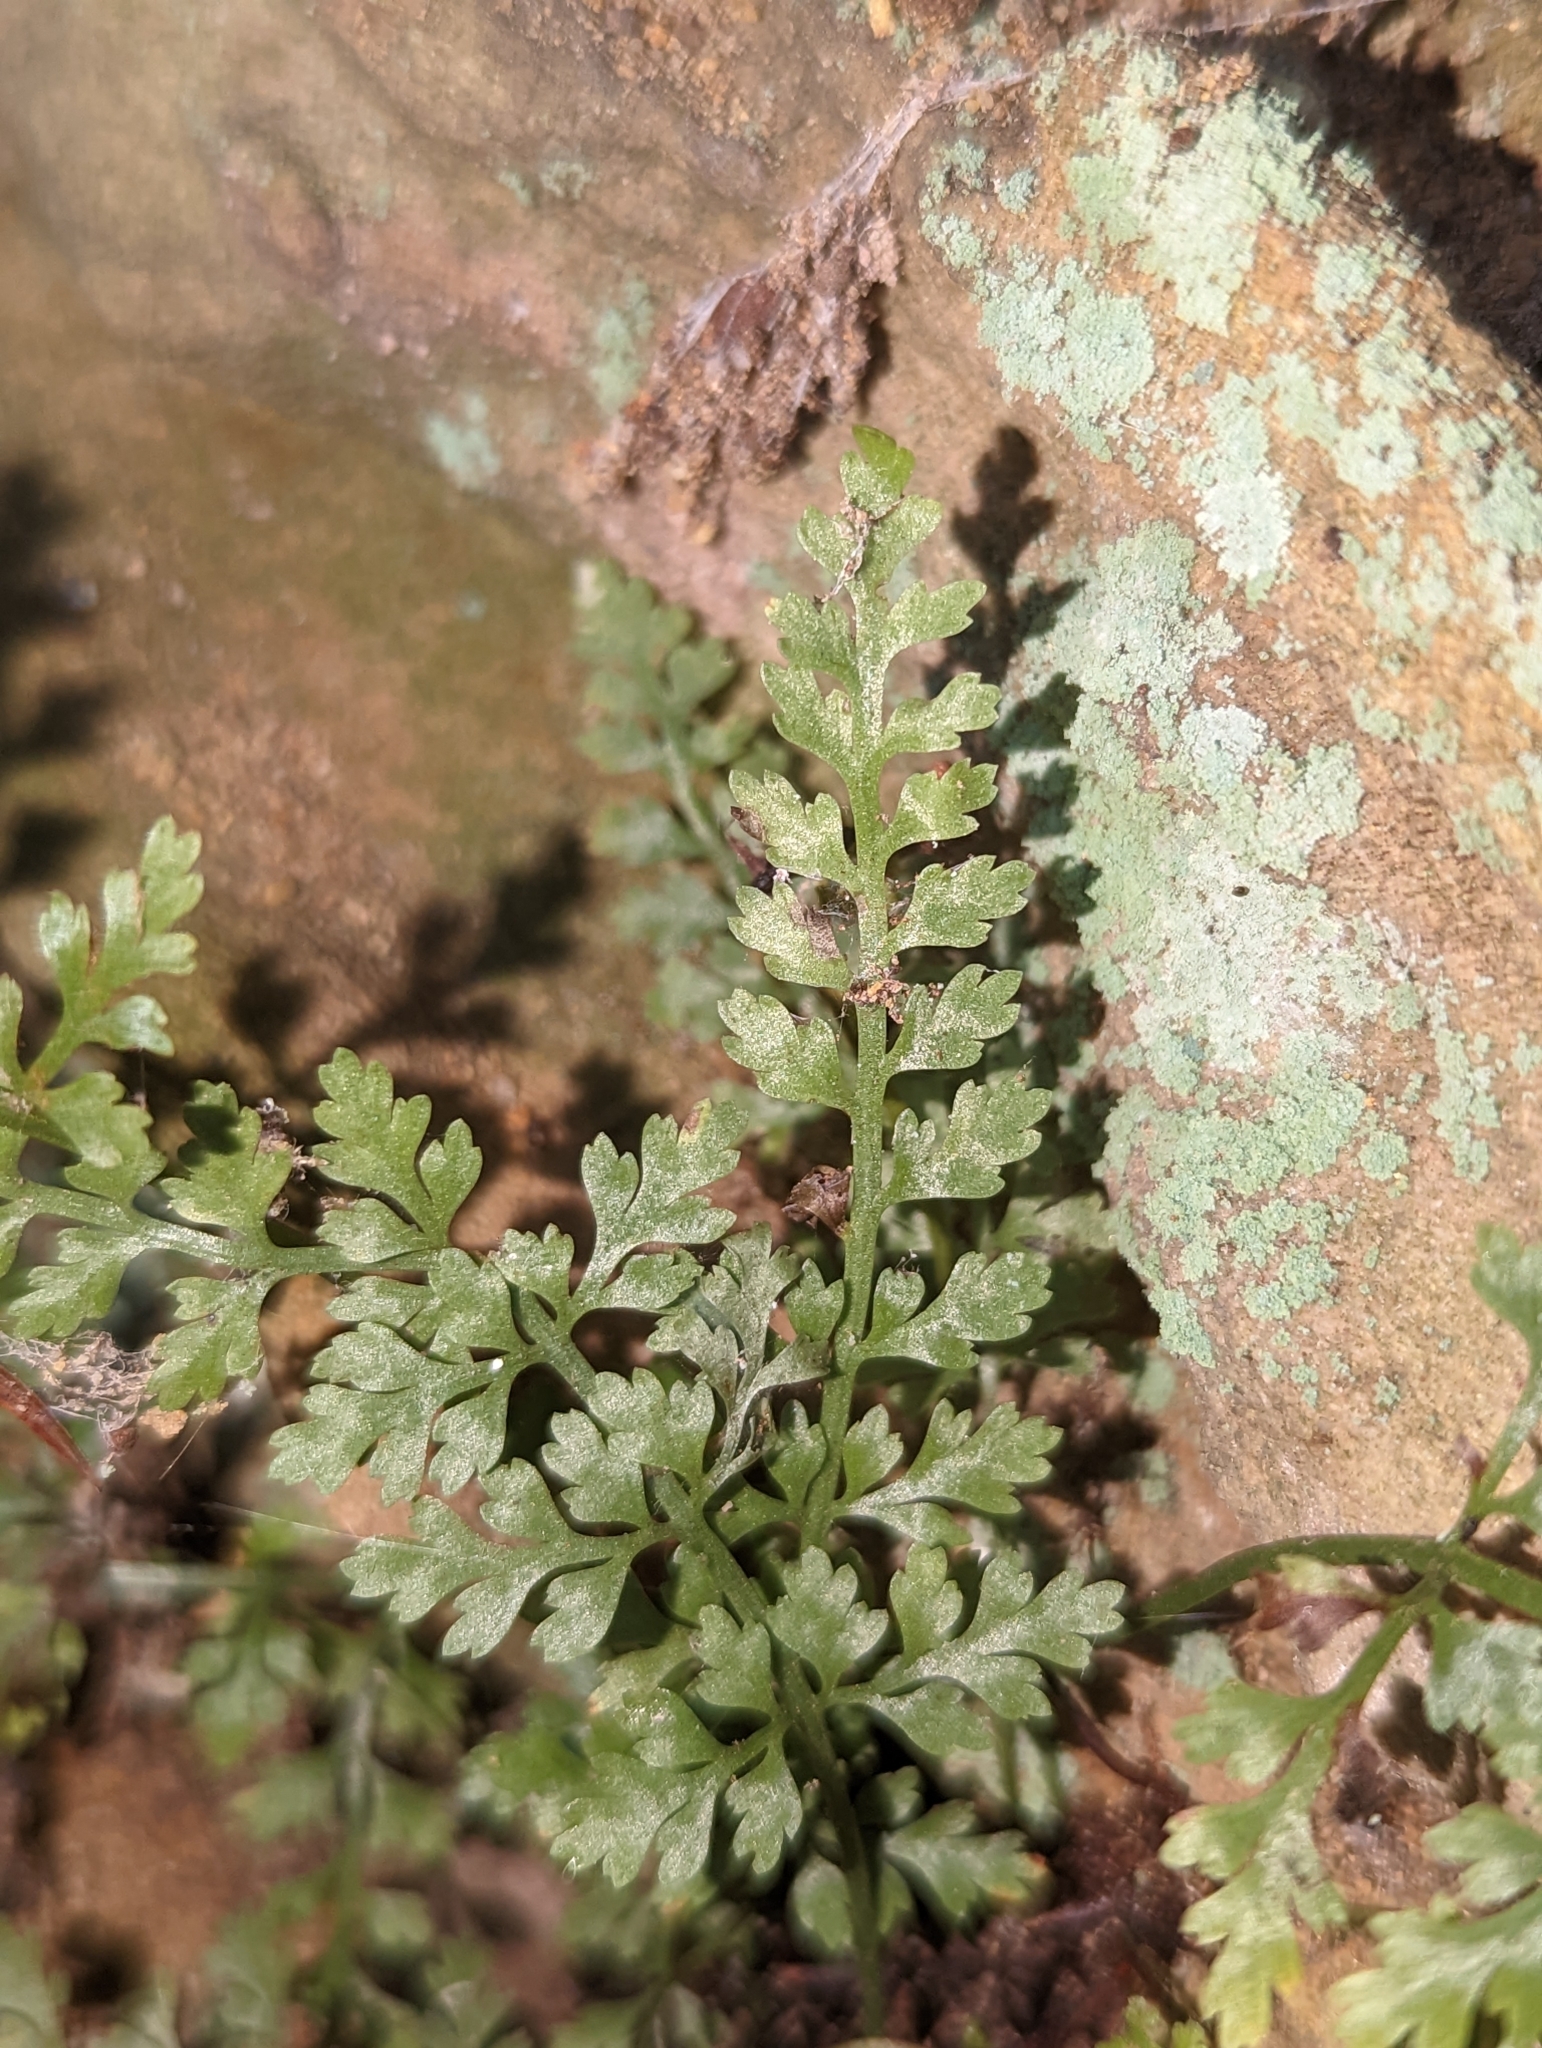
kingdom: Plantae
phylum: Tracheophyta
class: Polypodiopsida
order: Polypodiales
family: Aspleniaceae
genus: Asplenium
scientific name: Asplenium montanum
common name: Mountain spleenwort
